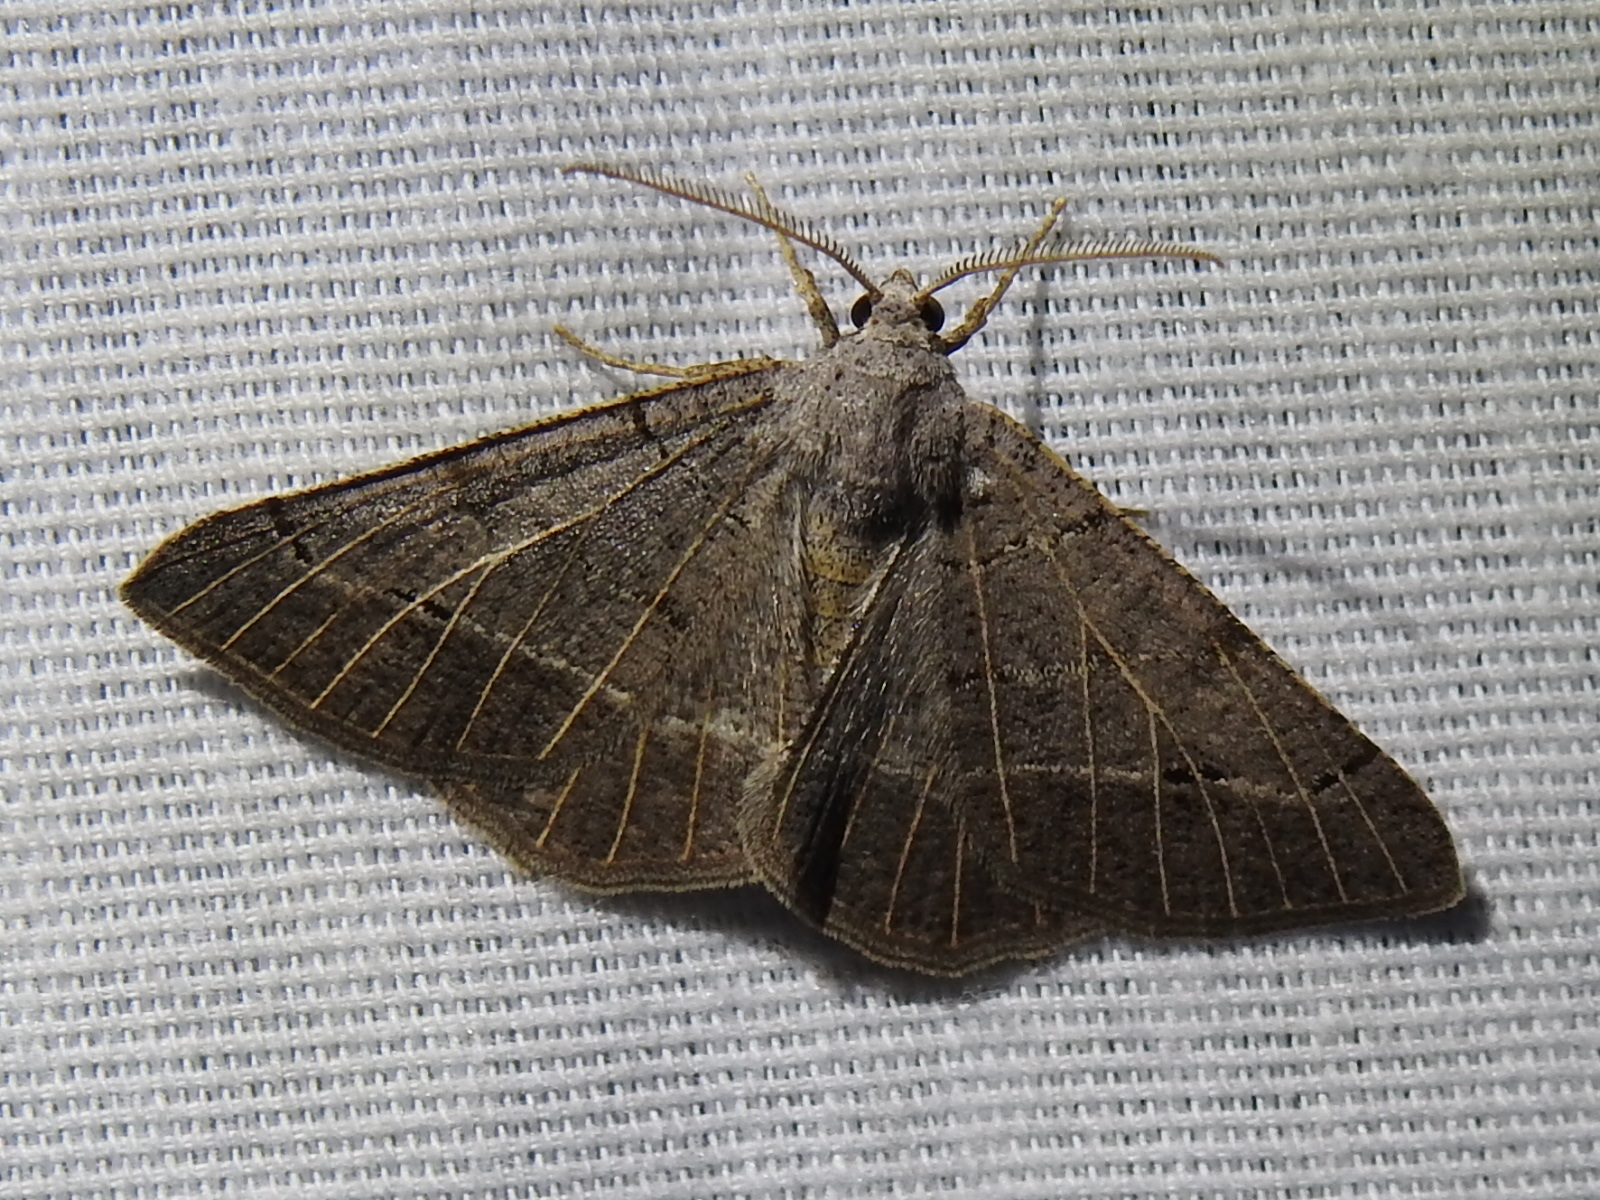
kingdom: Animalia
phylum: Arthropoda
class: Insecta
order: Lepidoptera
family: Geometridae
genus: Isturgia
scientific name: Isturgia dislocaria
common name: Pale-viened enconista
